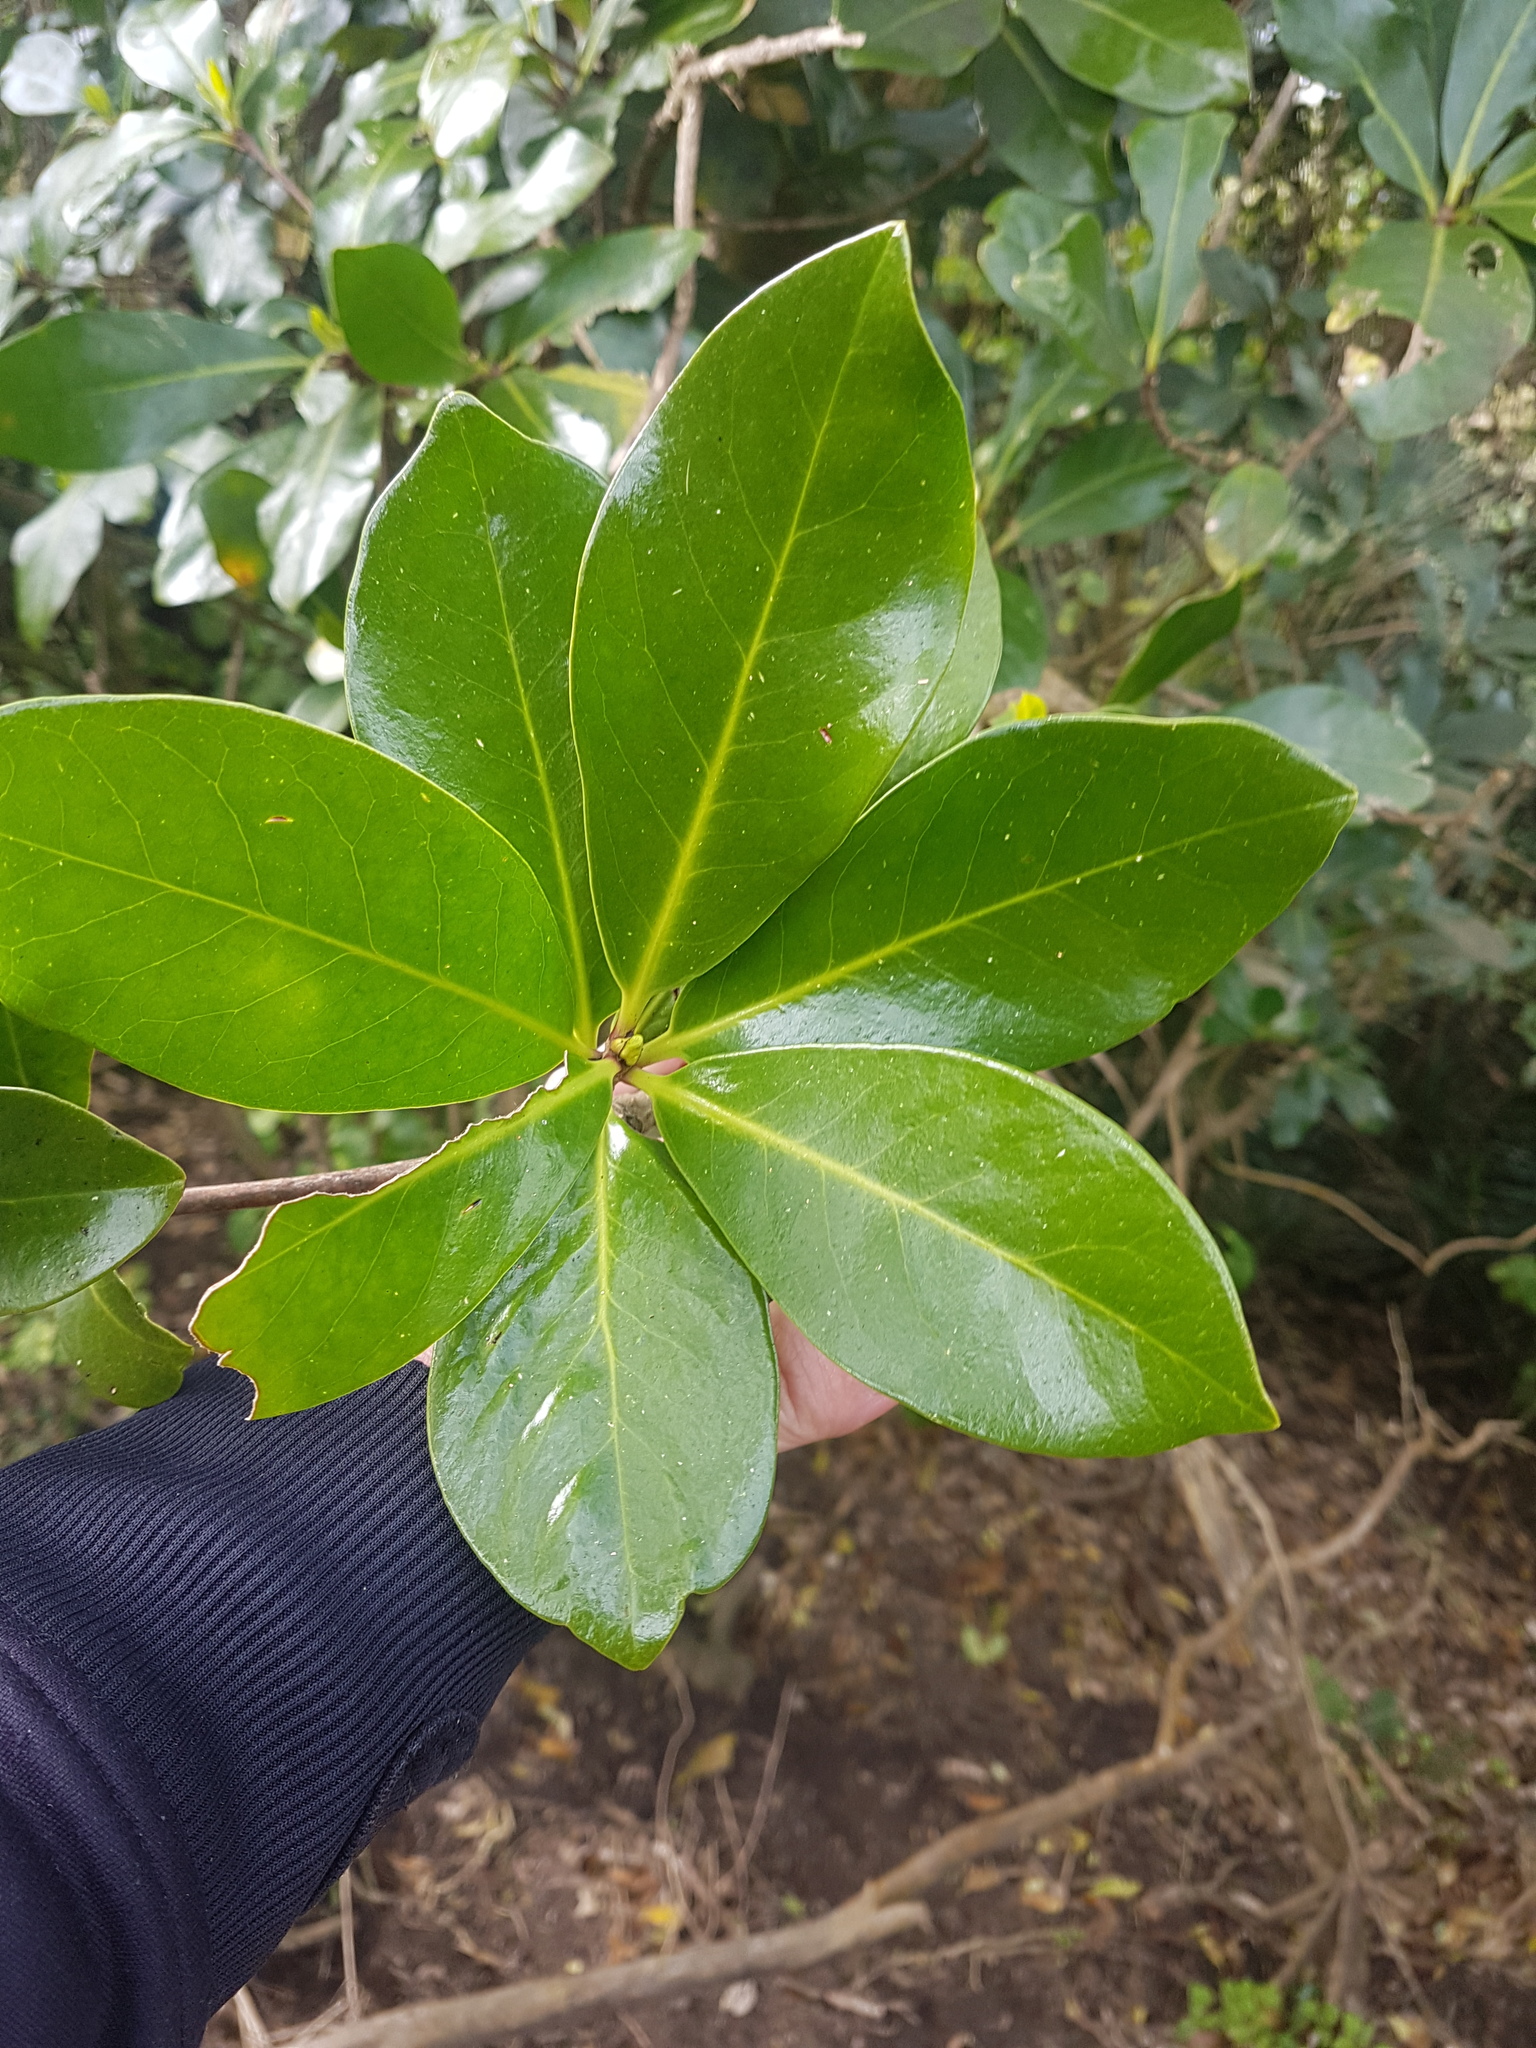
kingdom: Plantae
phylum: Tracheophyta
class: Magnoliopsida
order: Cucurbitales
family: Corynocarpaceae
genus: Corynocarpus
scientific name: Corynocarpus laevigatus
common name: New zealand laurel
